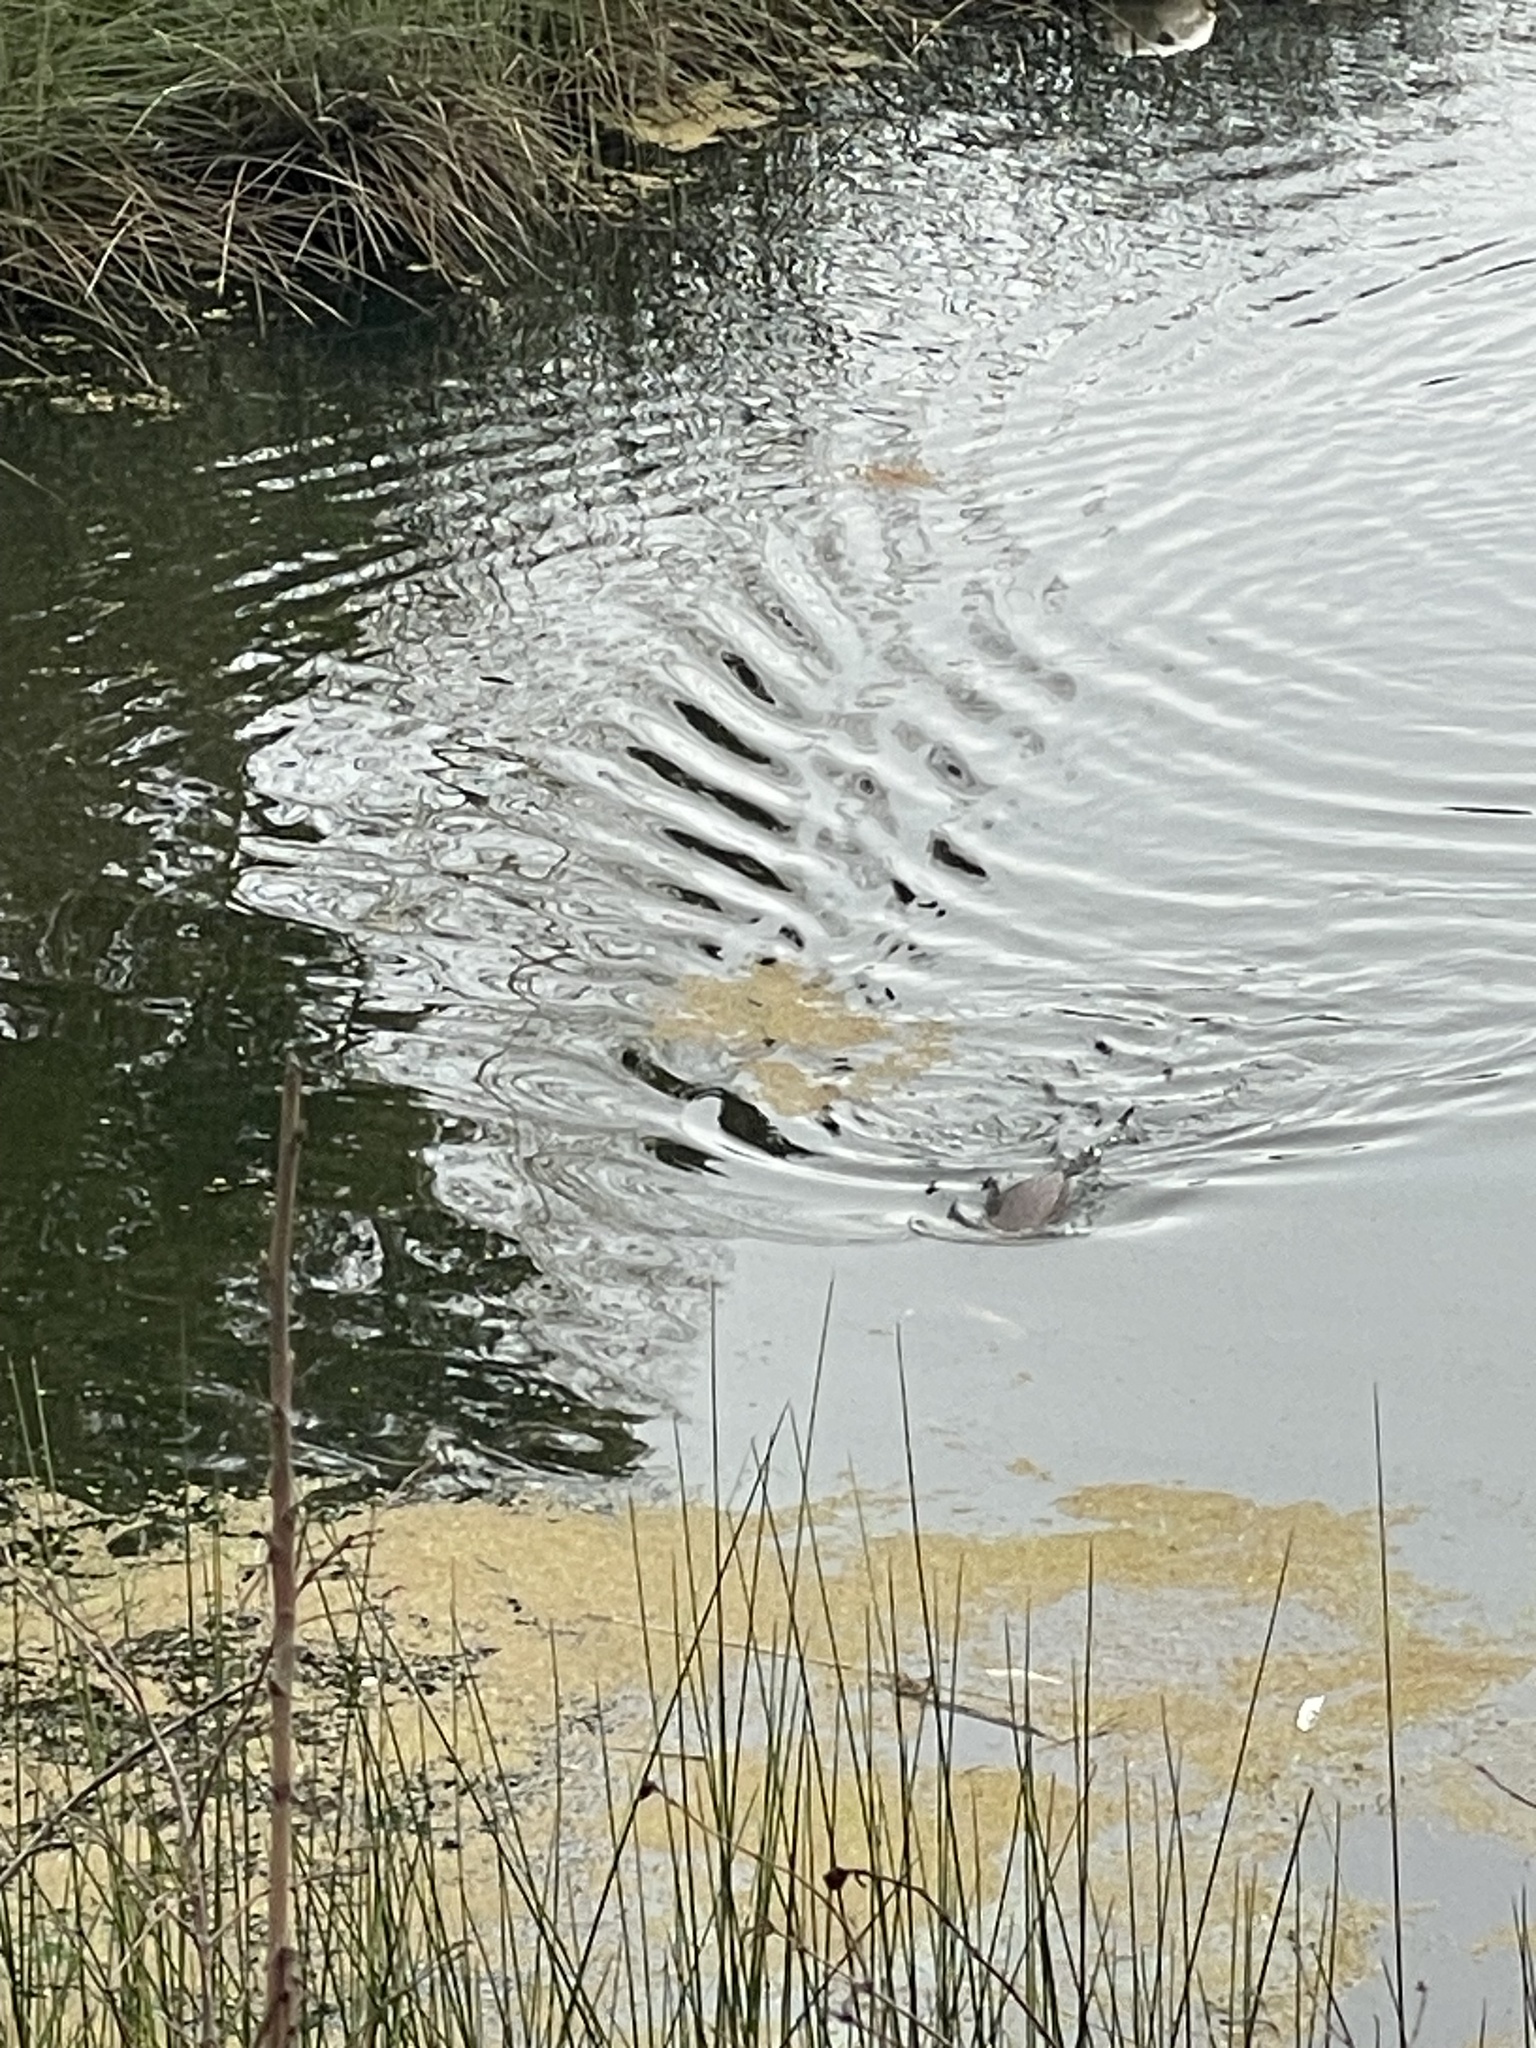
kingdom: Animalia
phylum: Chordata
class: Mammalia
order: Carnivora
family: Mustelidae
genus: Lontra
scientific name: Lontra canadensis
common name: North american river otter
